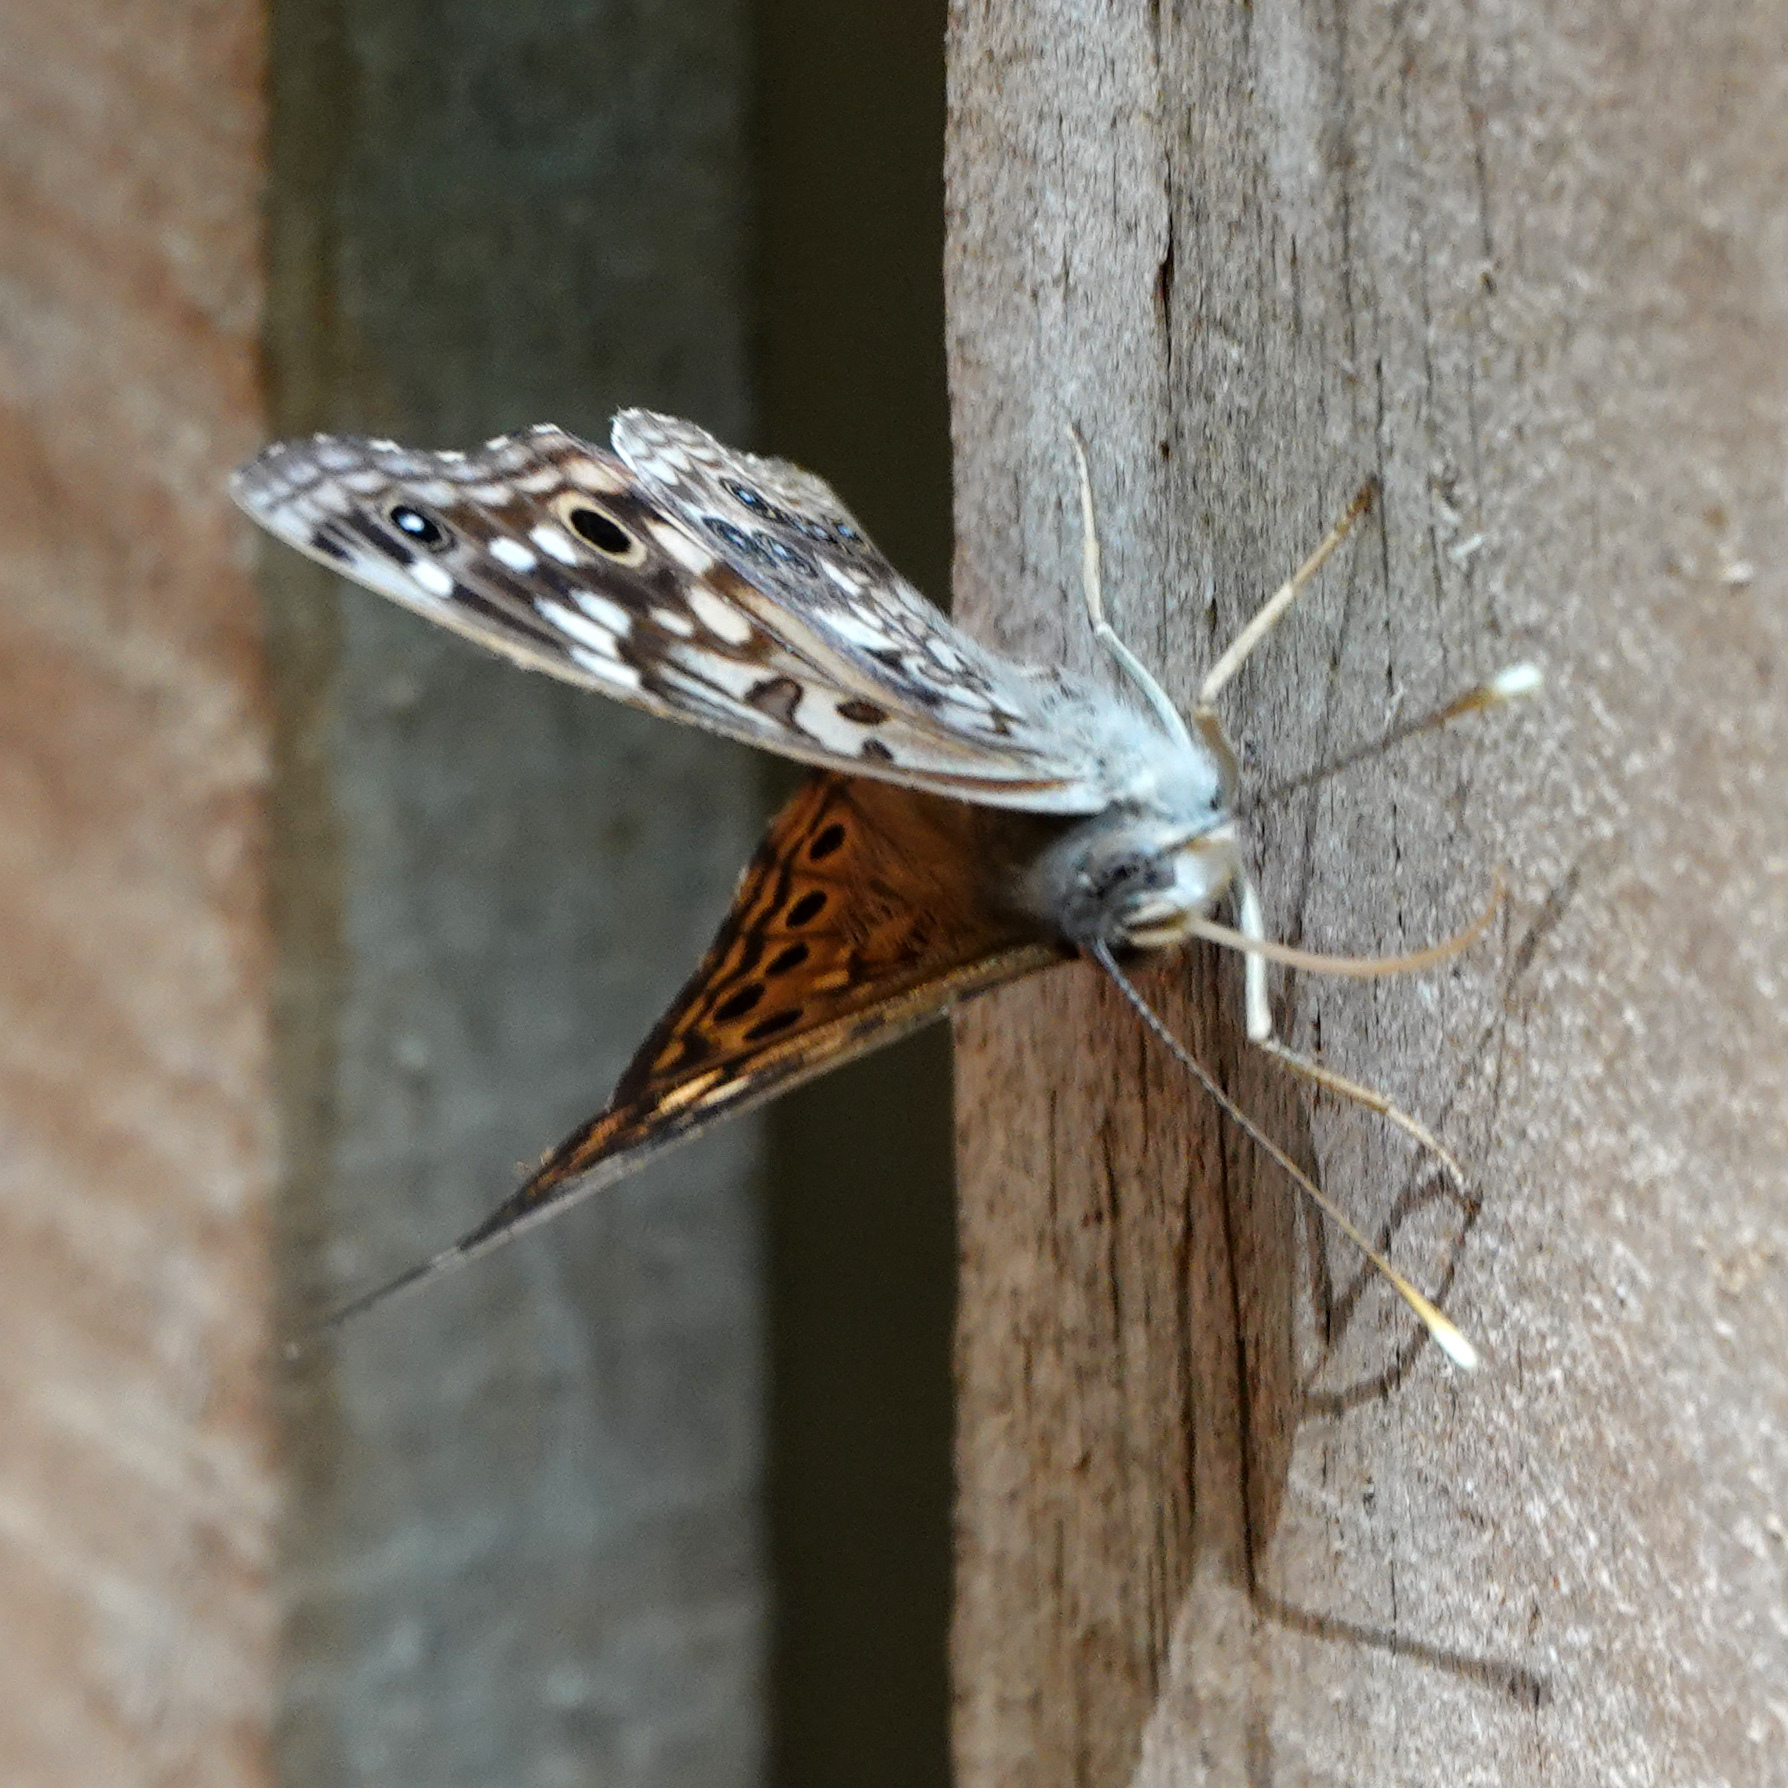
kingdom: Animalia
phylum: Arthropoda
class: Insecta
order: Lepidoptera
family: Nymphalidae
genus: Asterocampa
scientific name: Asterocampa celtis
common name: Hackberry emperor
